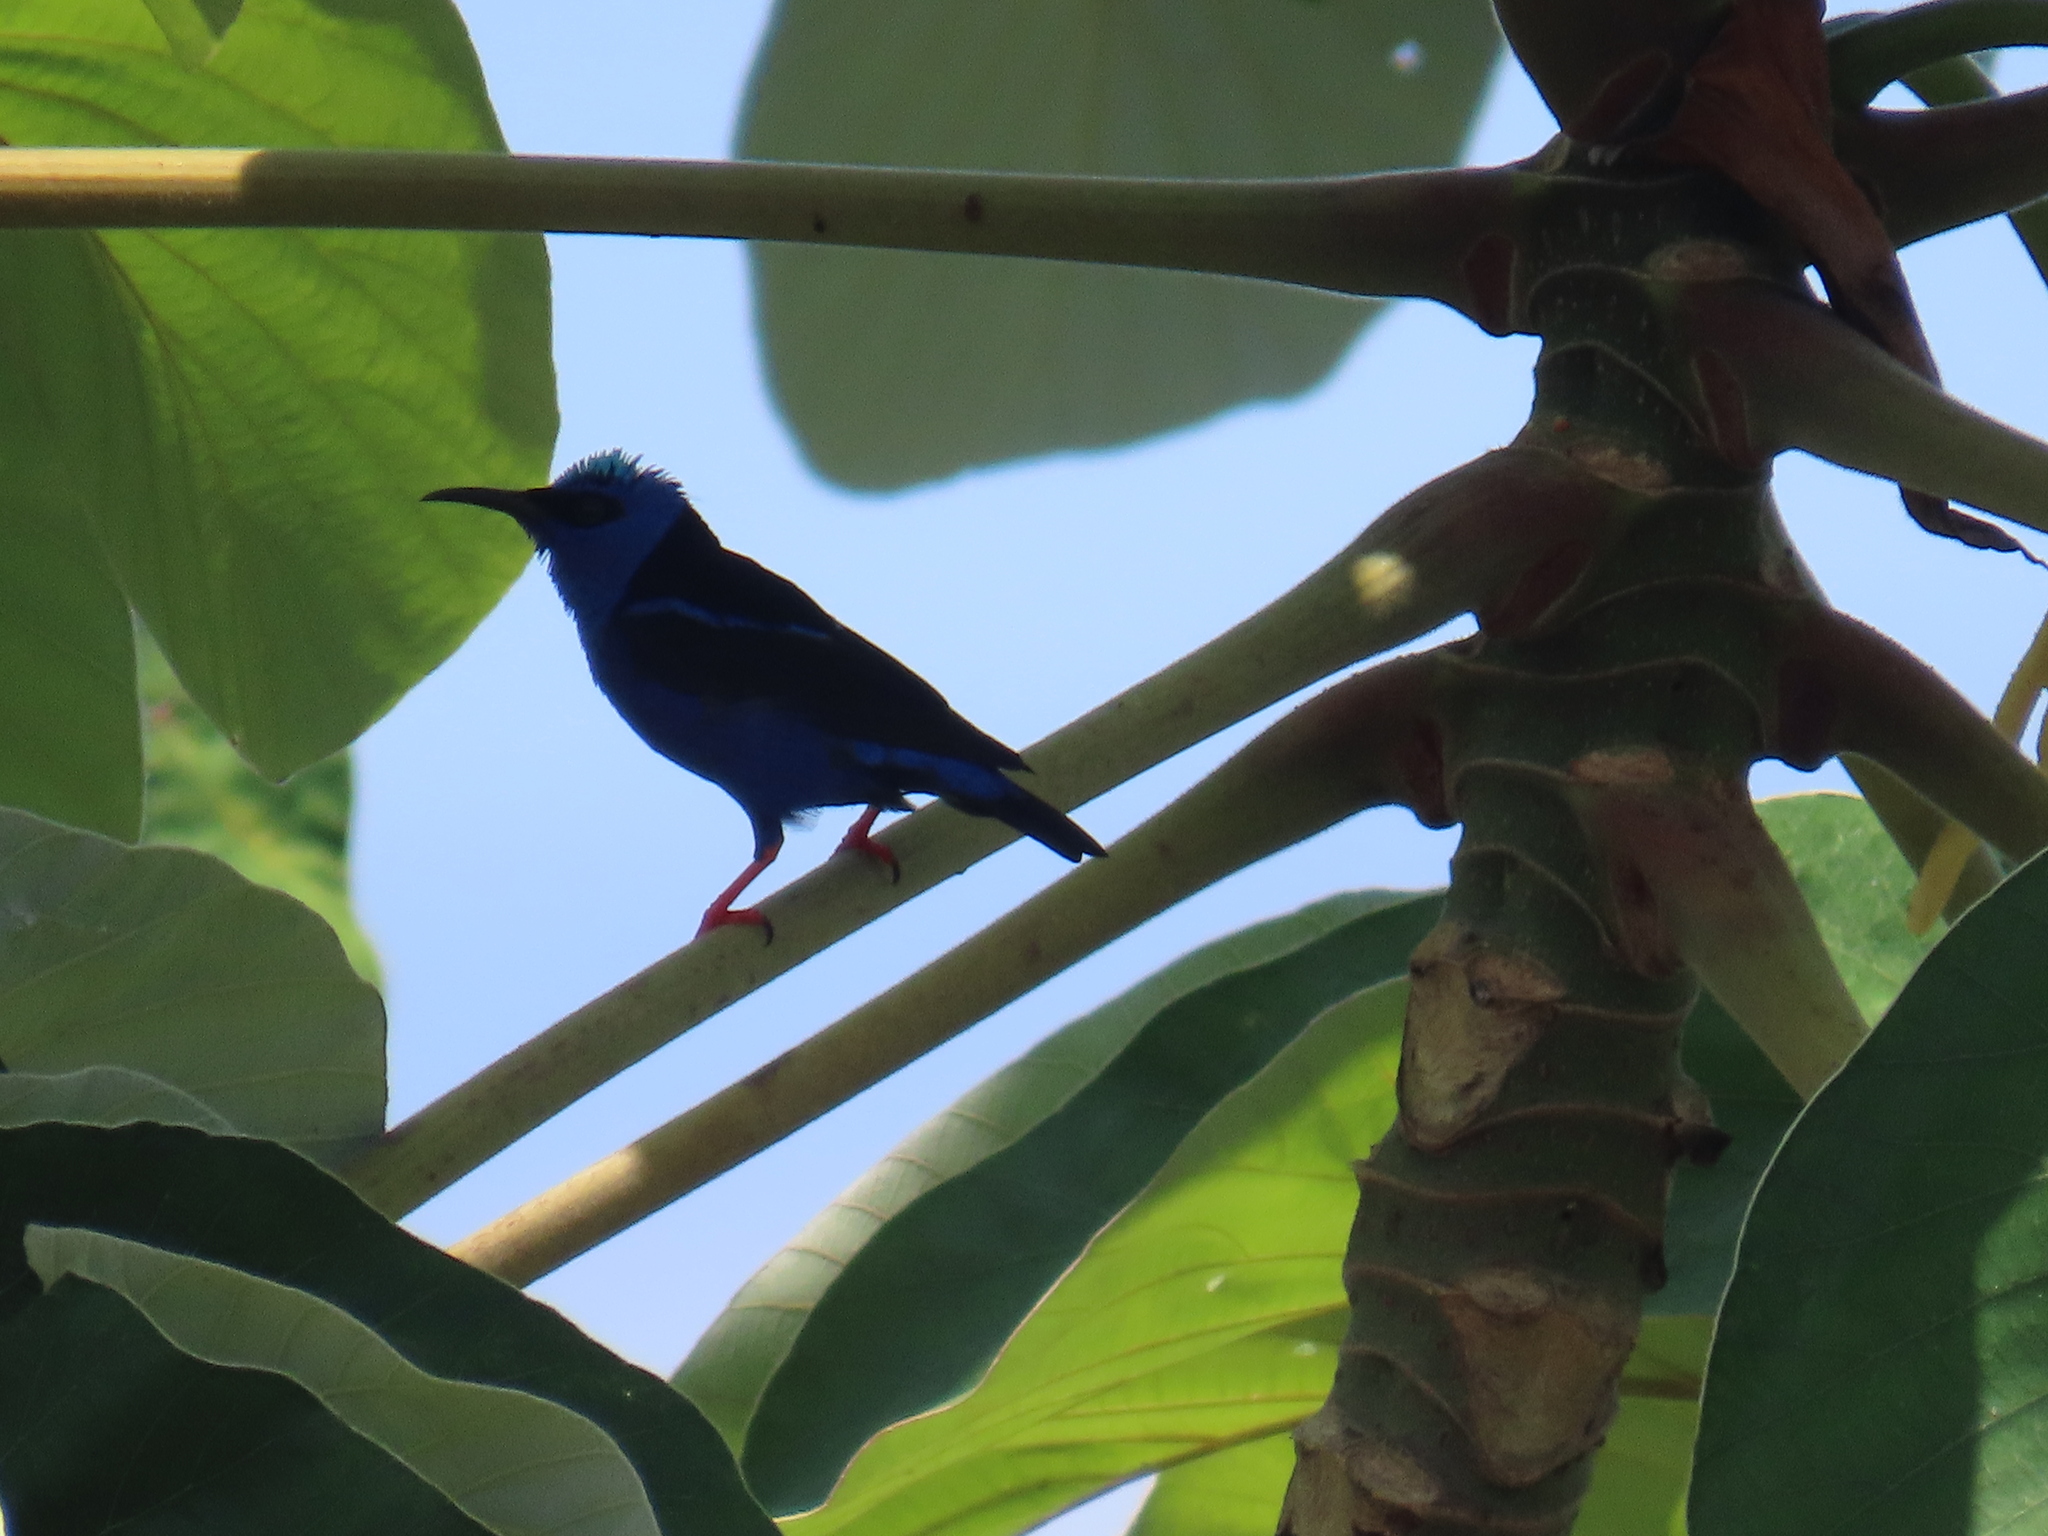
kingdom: Animalia
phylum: Chordata
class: Aves
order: Passeriformes
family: Thraupidae
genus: Cyanerpes
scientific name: Cyanerpes cyaneus
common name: Red-legged honeycreeper
